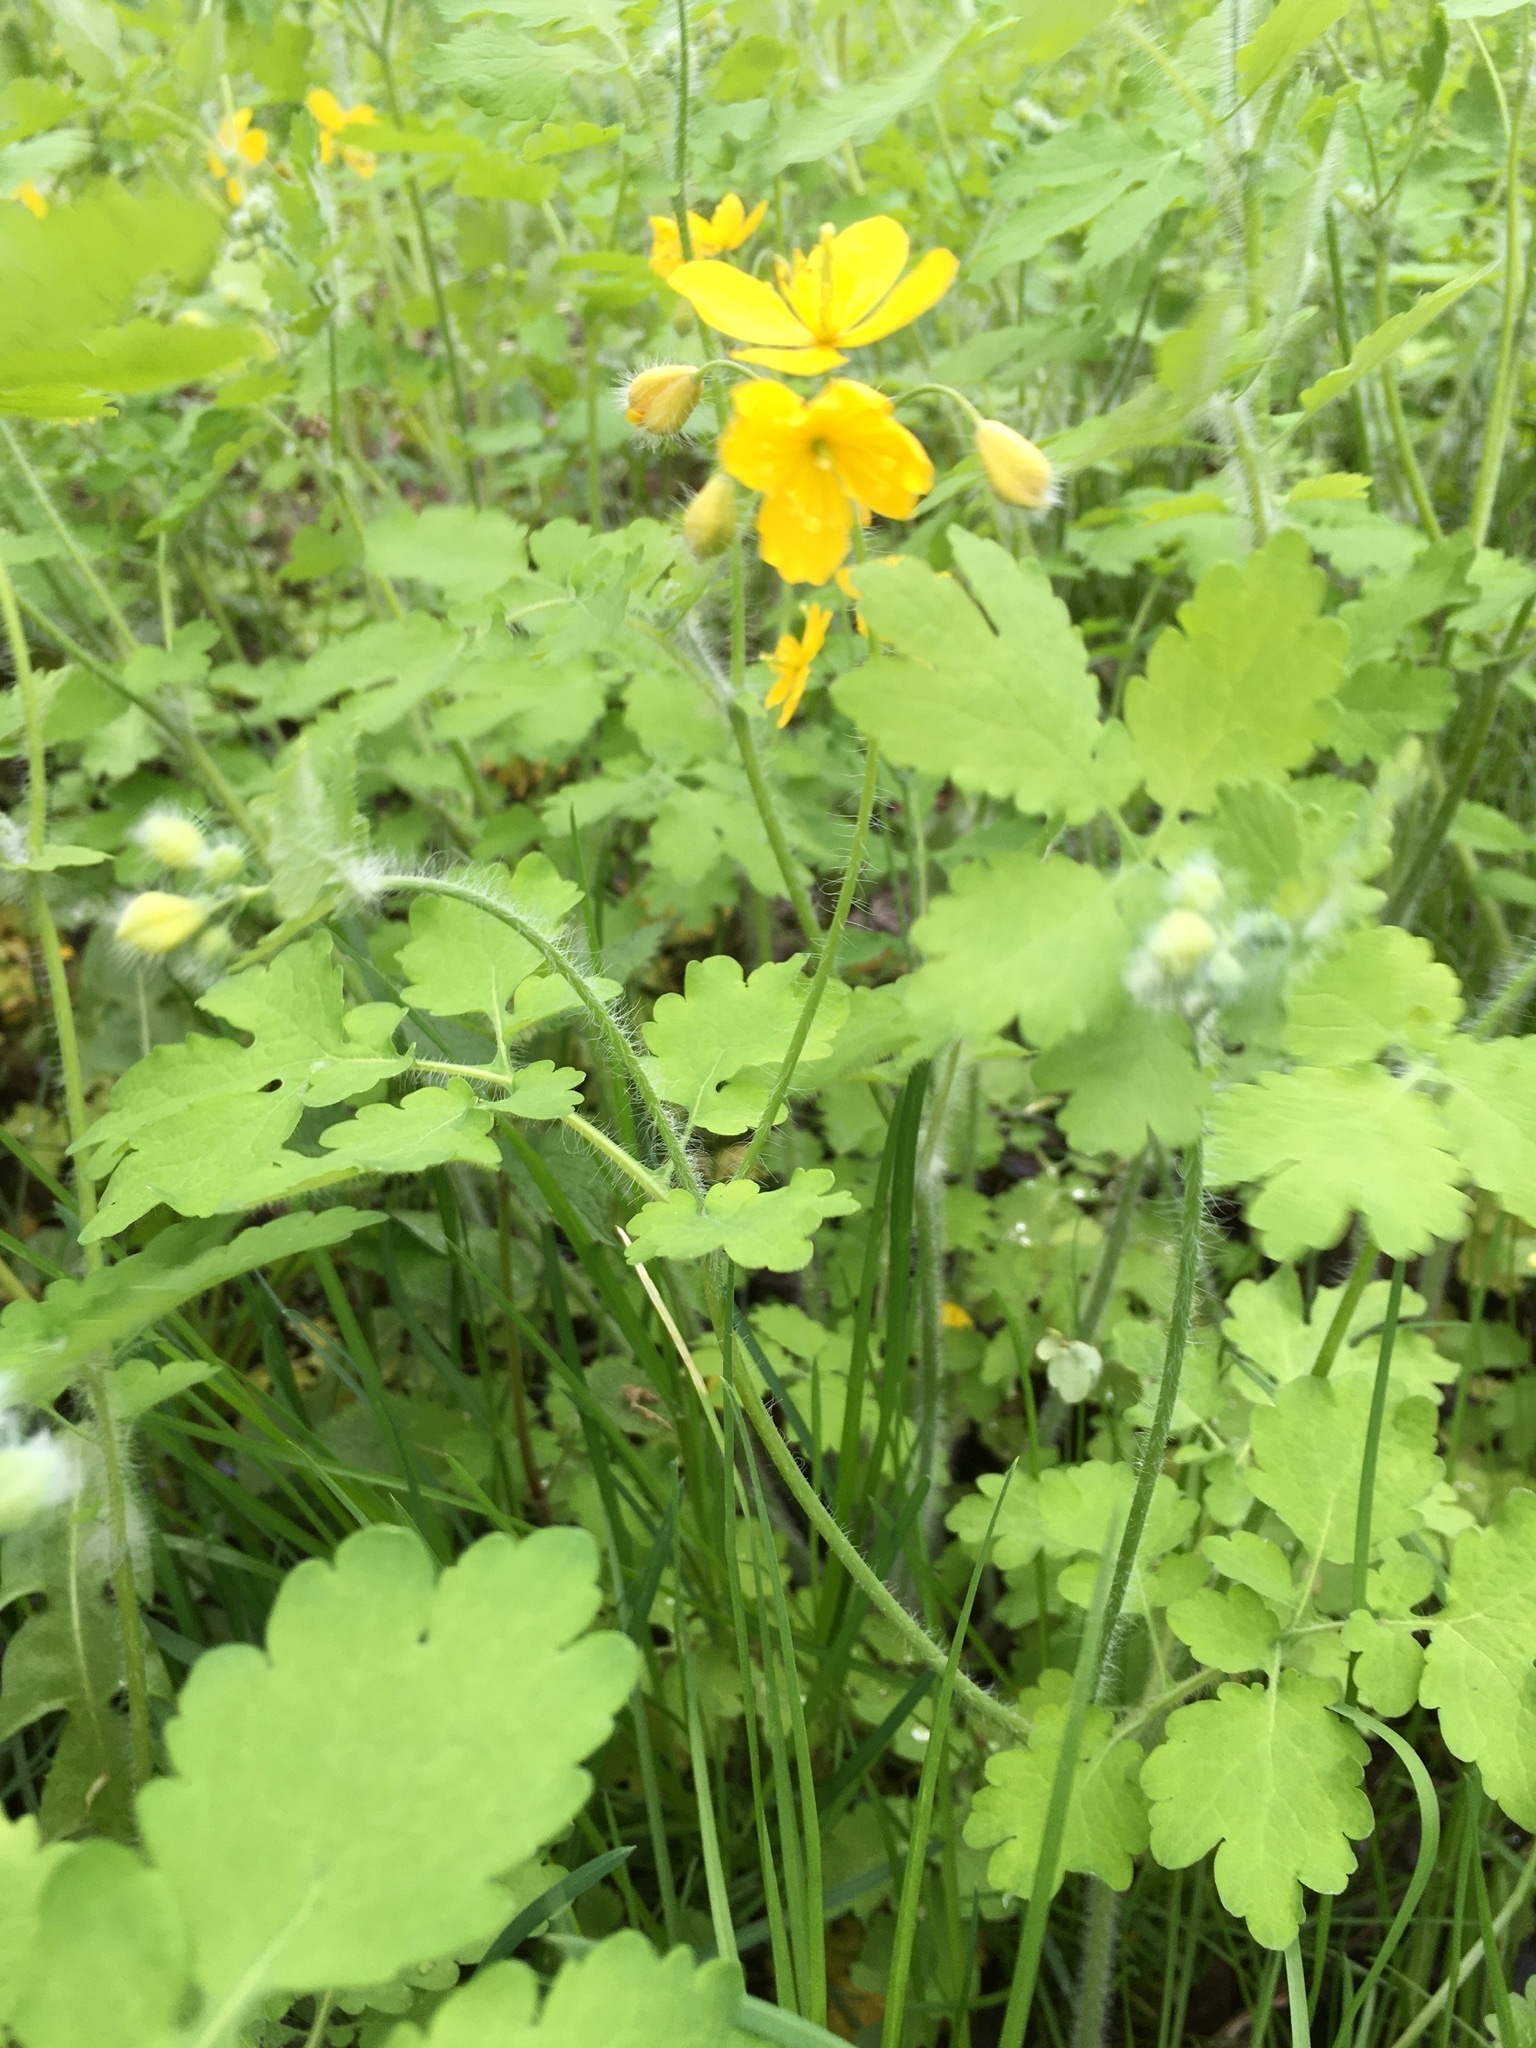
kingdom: Plantae
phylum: Tracheophyta
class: Magnoliopsida
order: Ranunculales
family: Papaveraceae
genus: Chelidonium
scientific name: Chelidonium majus
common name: Greater celandine
